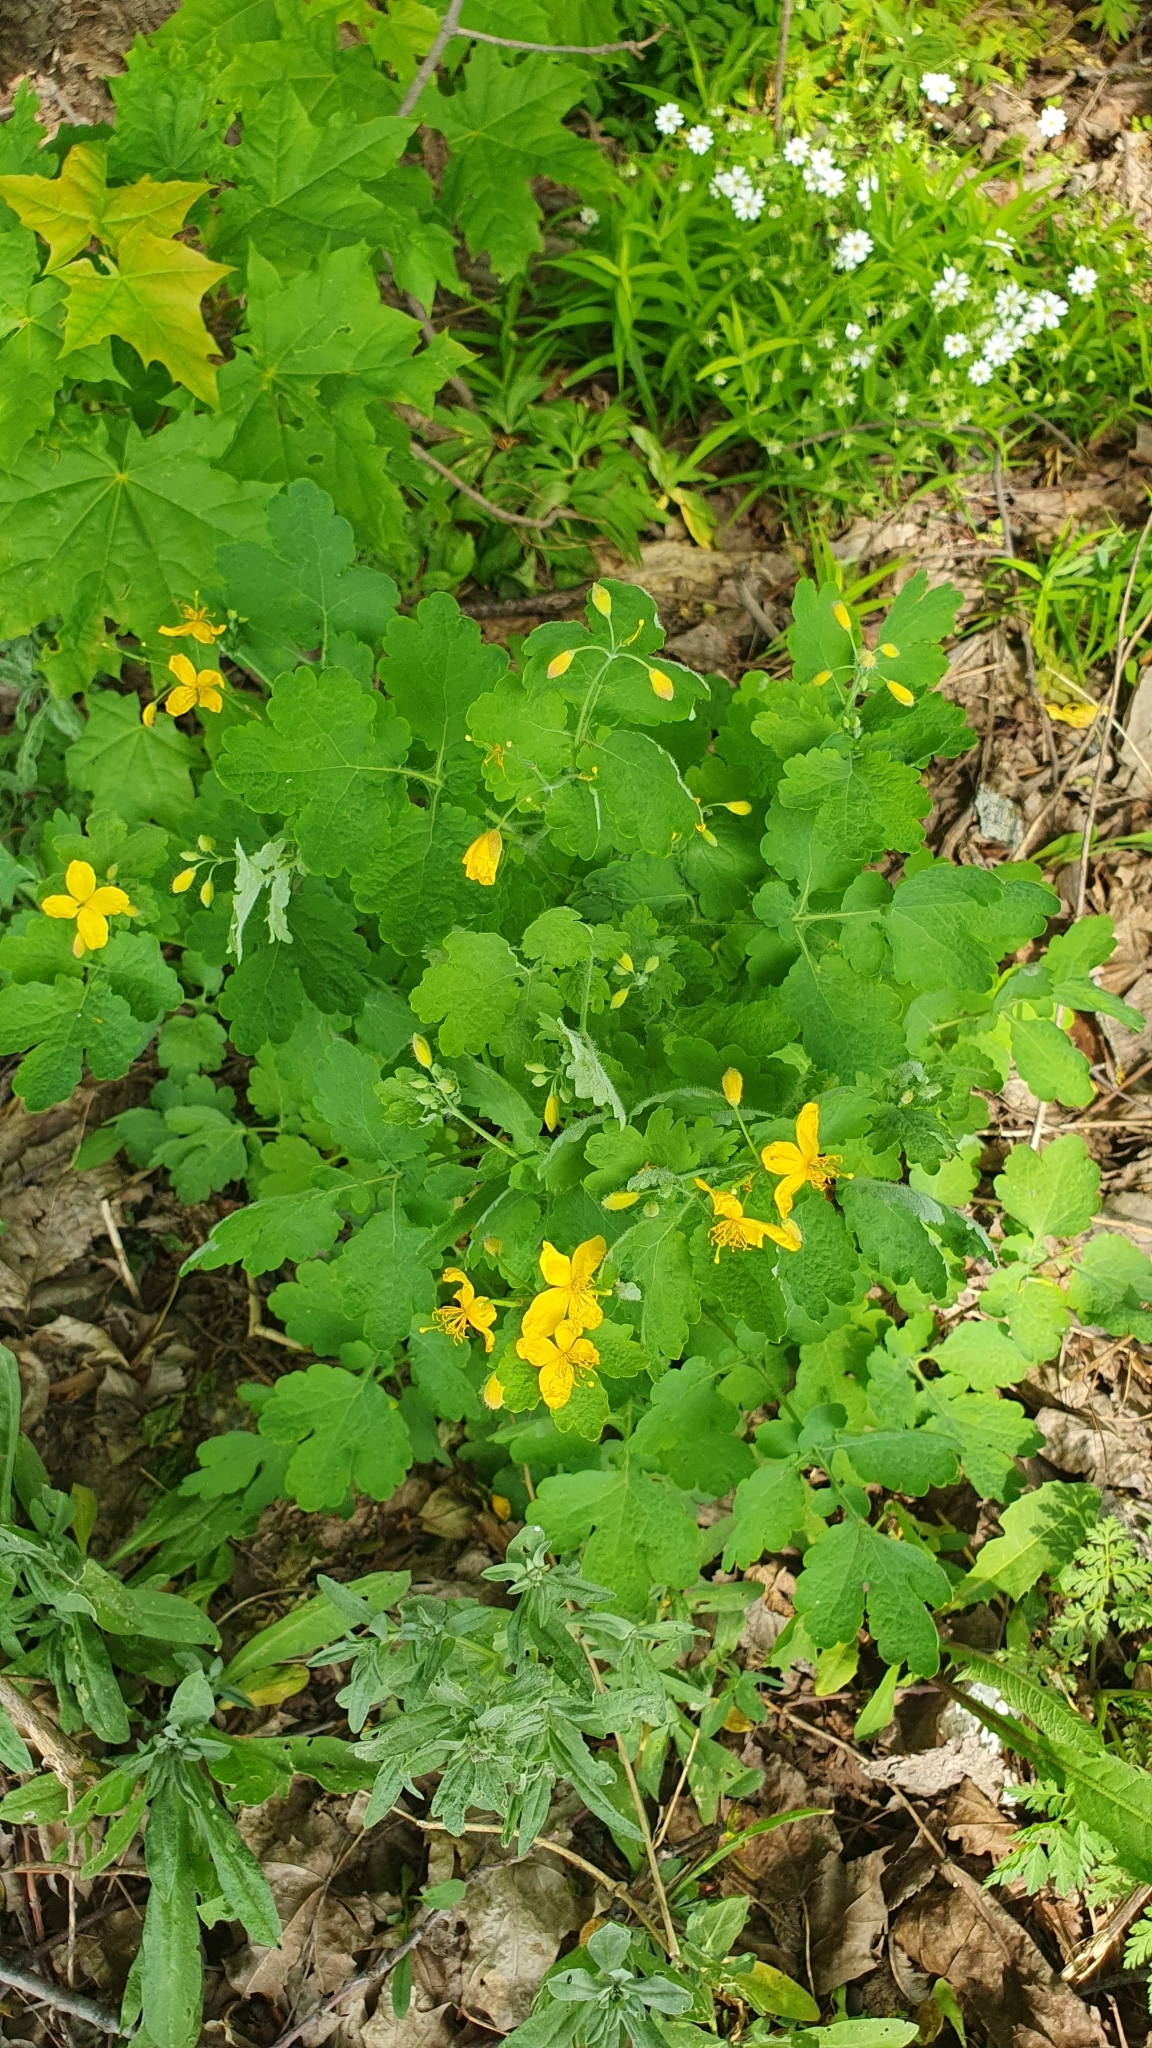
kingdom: Plantae
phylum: Tracheophyta
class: Magnoliopsida
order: Ranunculales
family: Papaveraceae
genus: Chelidonium
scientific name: Chelidonium majus
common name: Greater celandine
